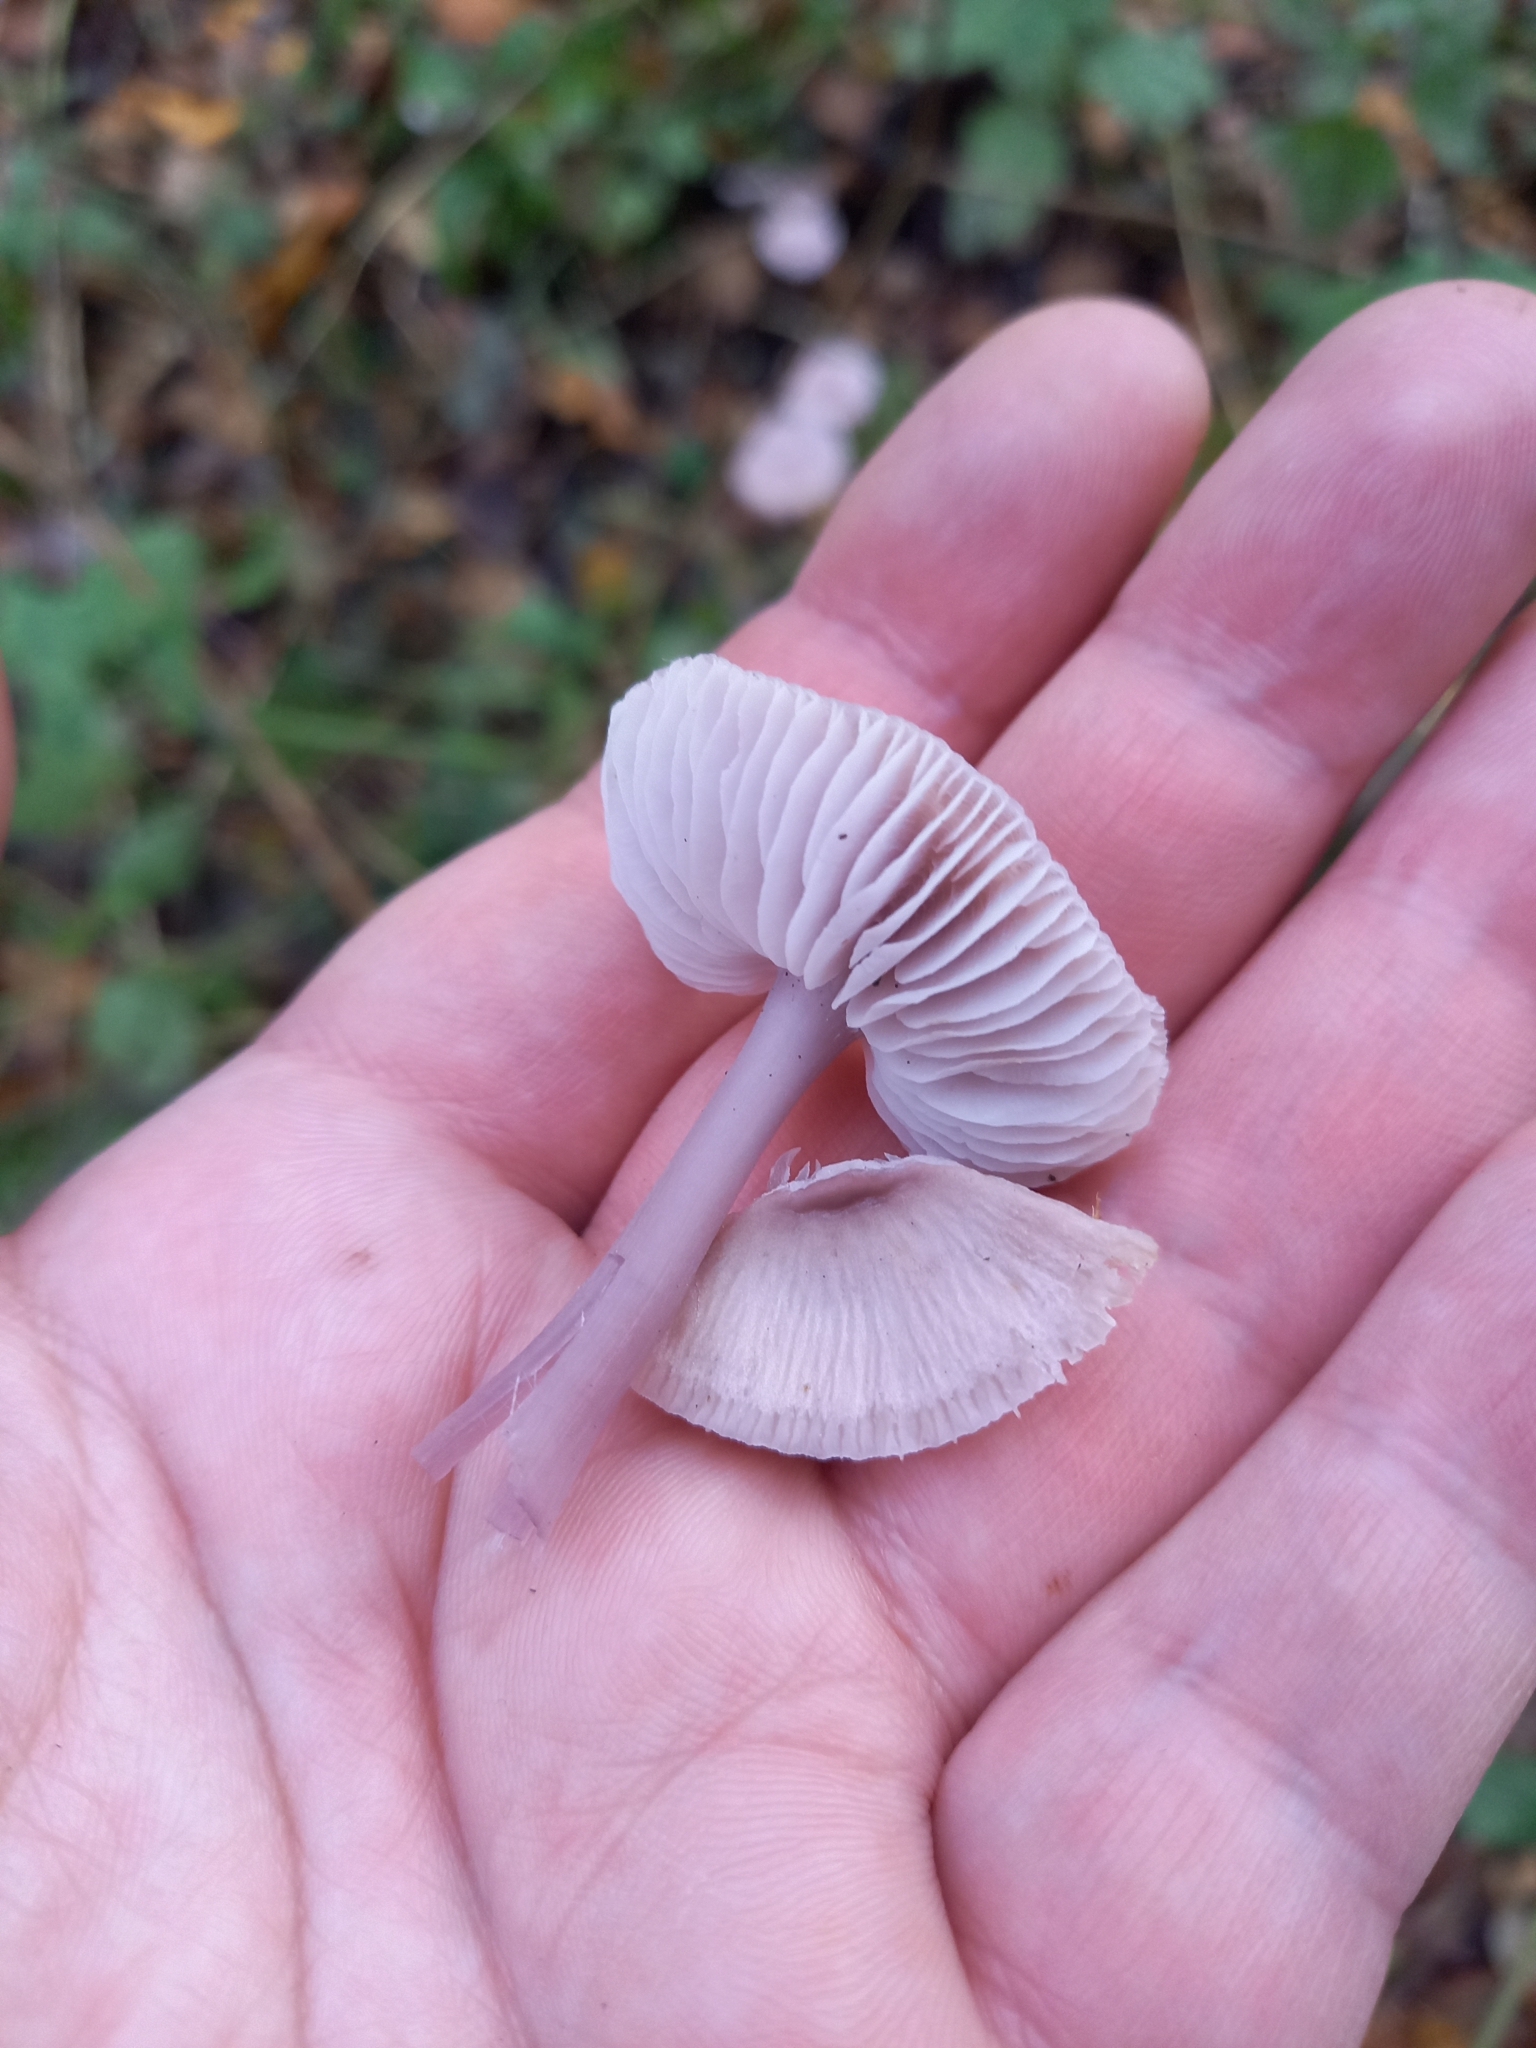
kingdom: Fungi
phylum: Basidiomycota
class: Agaricomycetes
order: Agaricales
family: Mycenaceae
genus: Mycena
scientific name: Mycena pura
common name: Lilac bonnet
